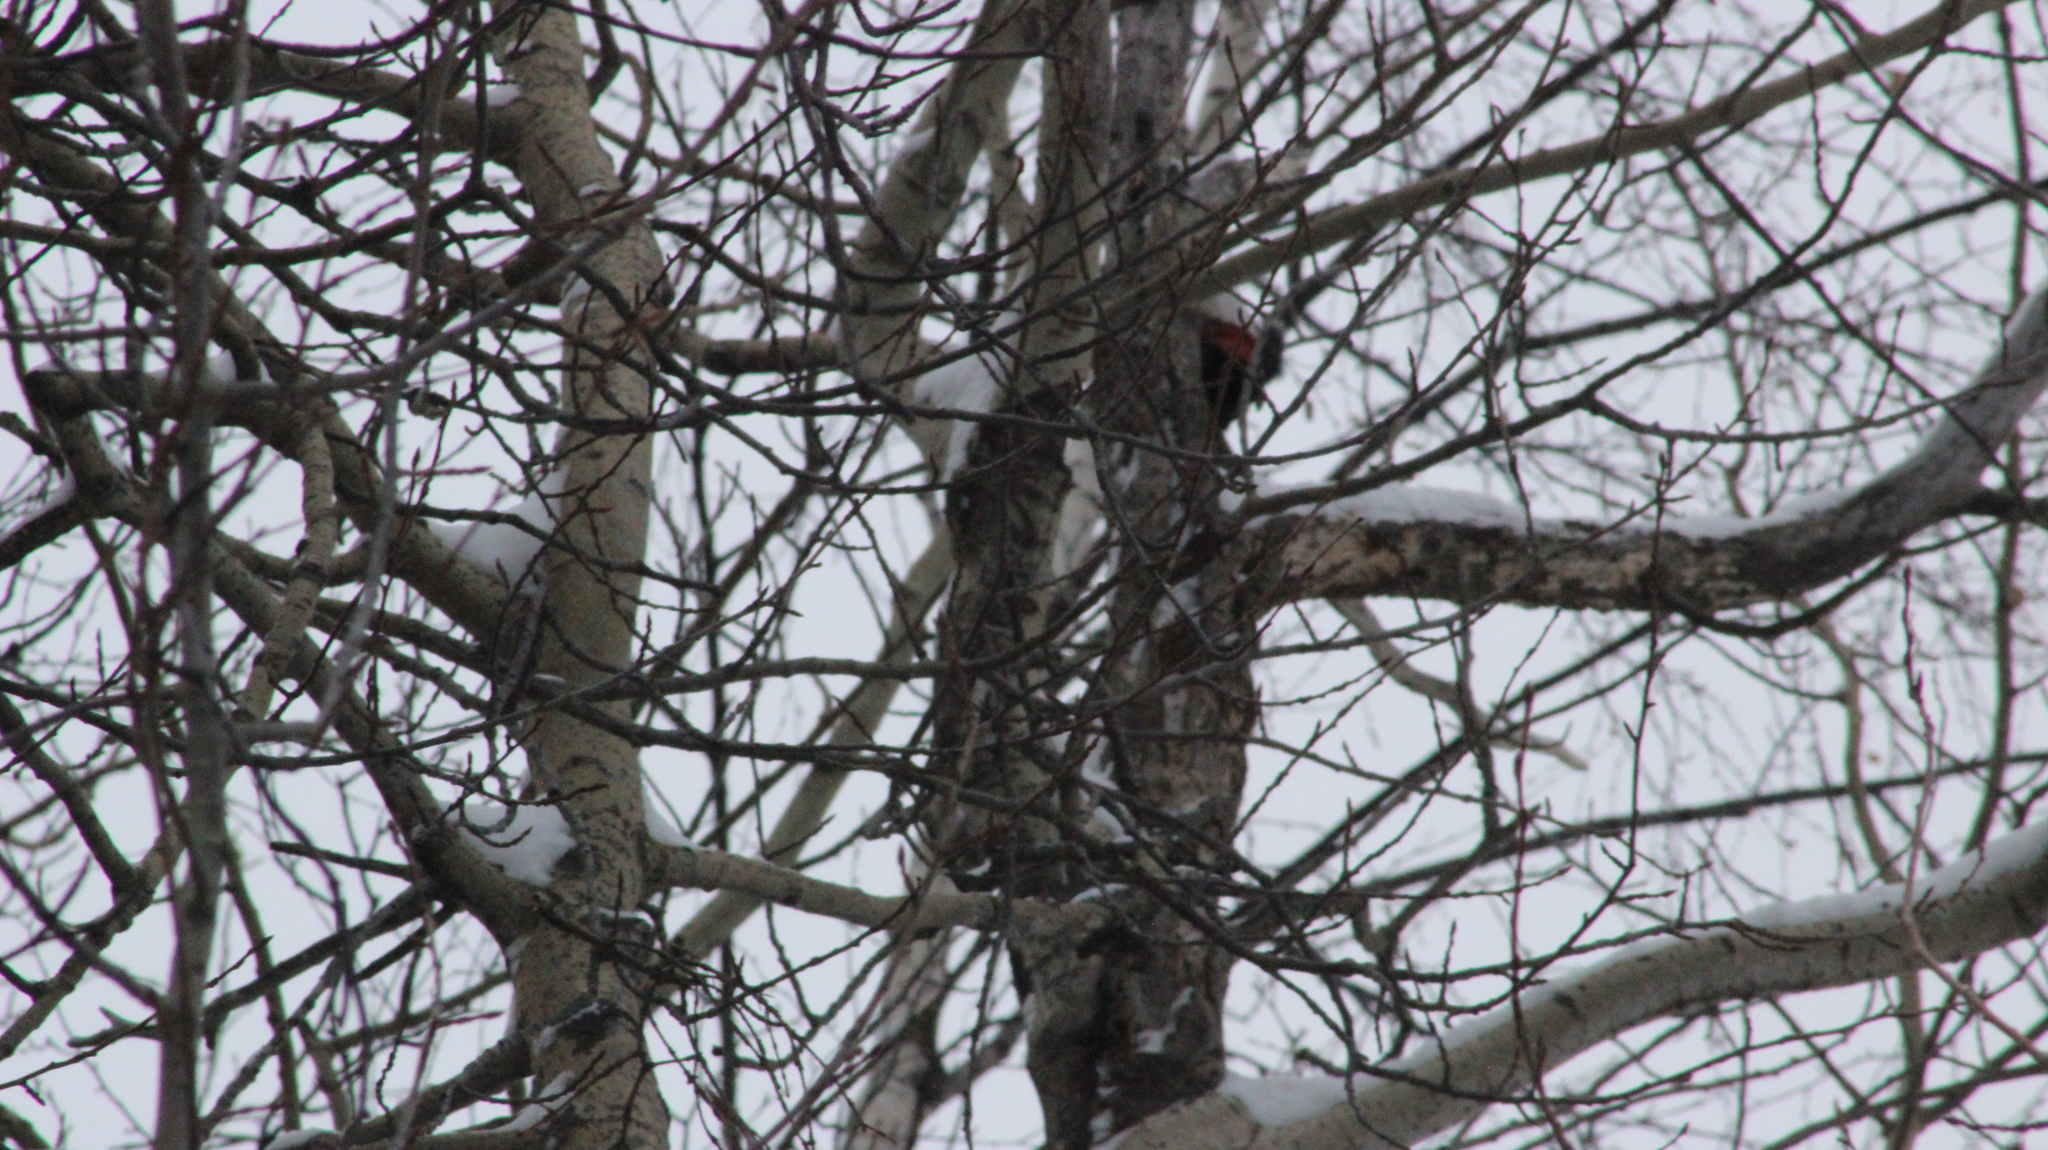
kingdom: Animalia
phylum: Chordata
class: Aves
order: Piciformes
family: Picidae
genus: Dendrocopos
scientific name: Dendrocopos major
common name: Great spotted woodpecker
